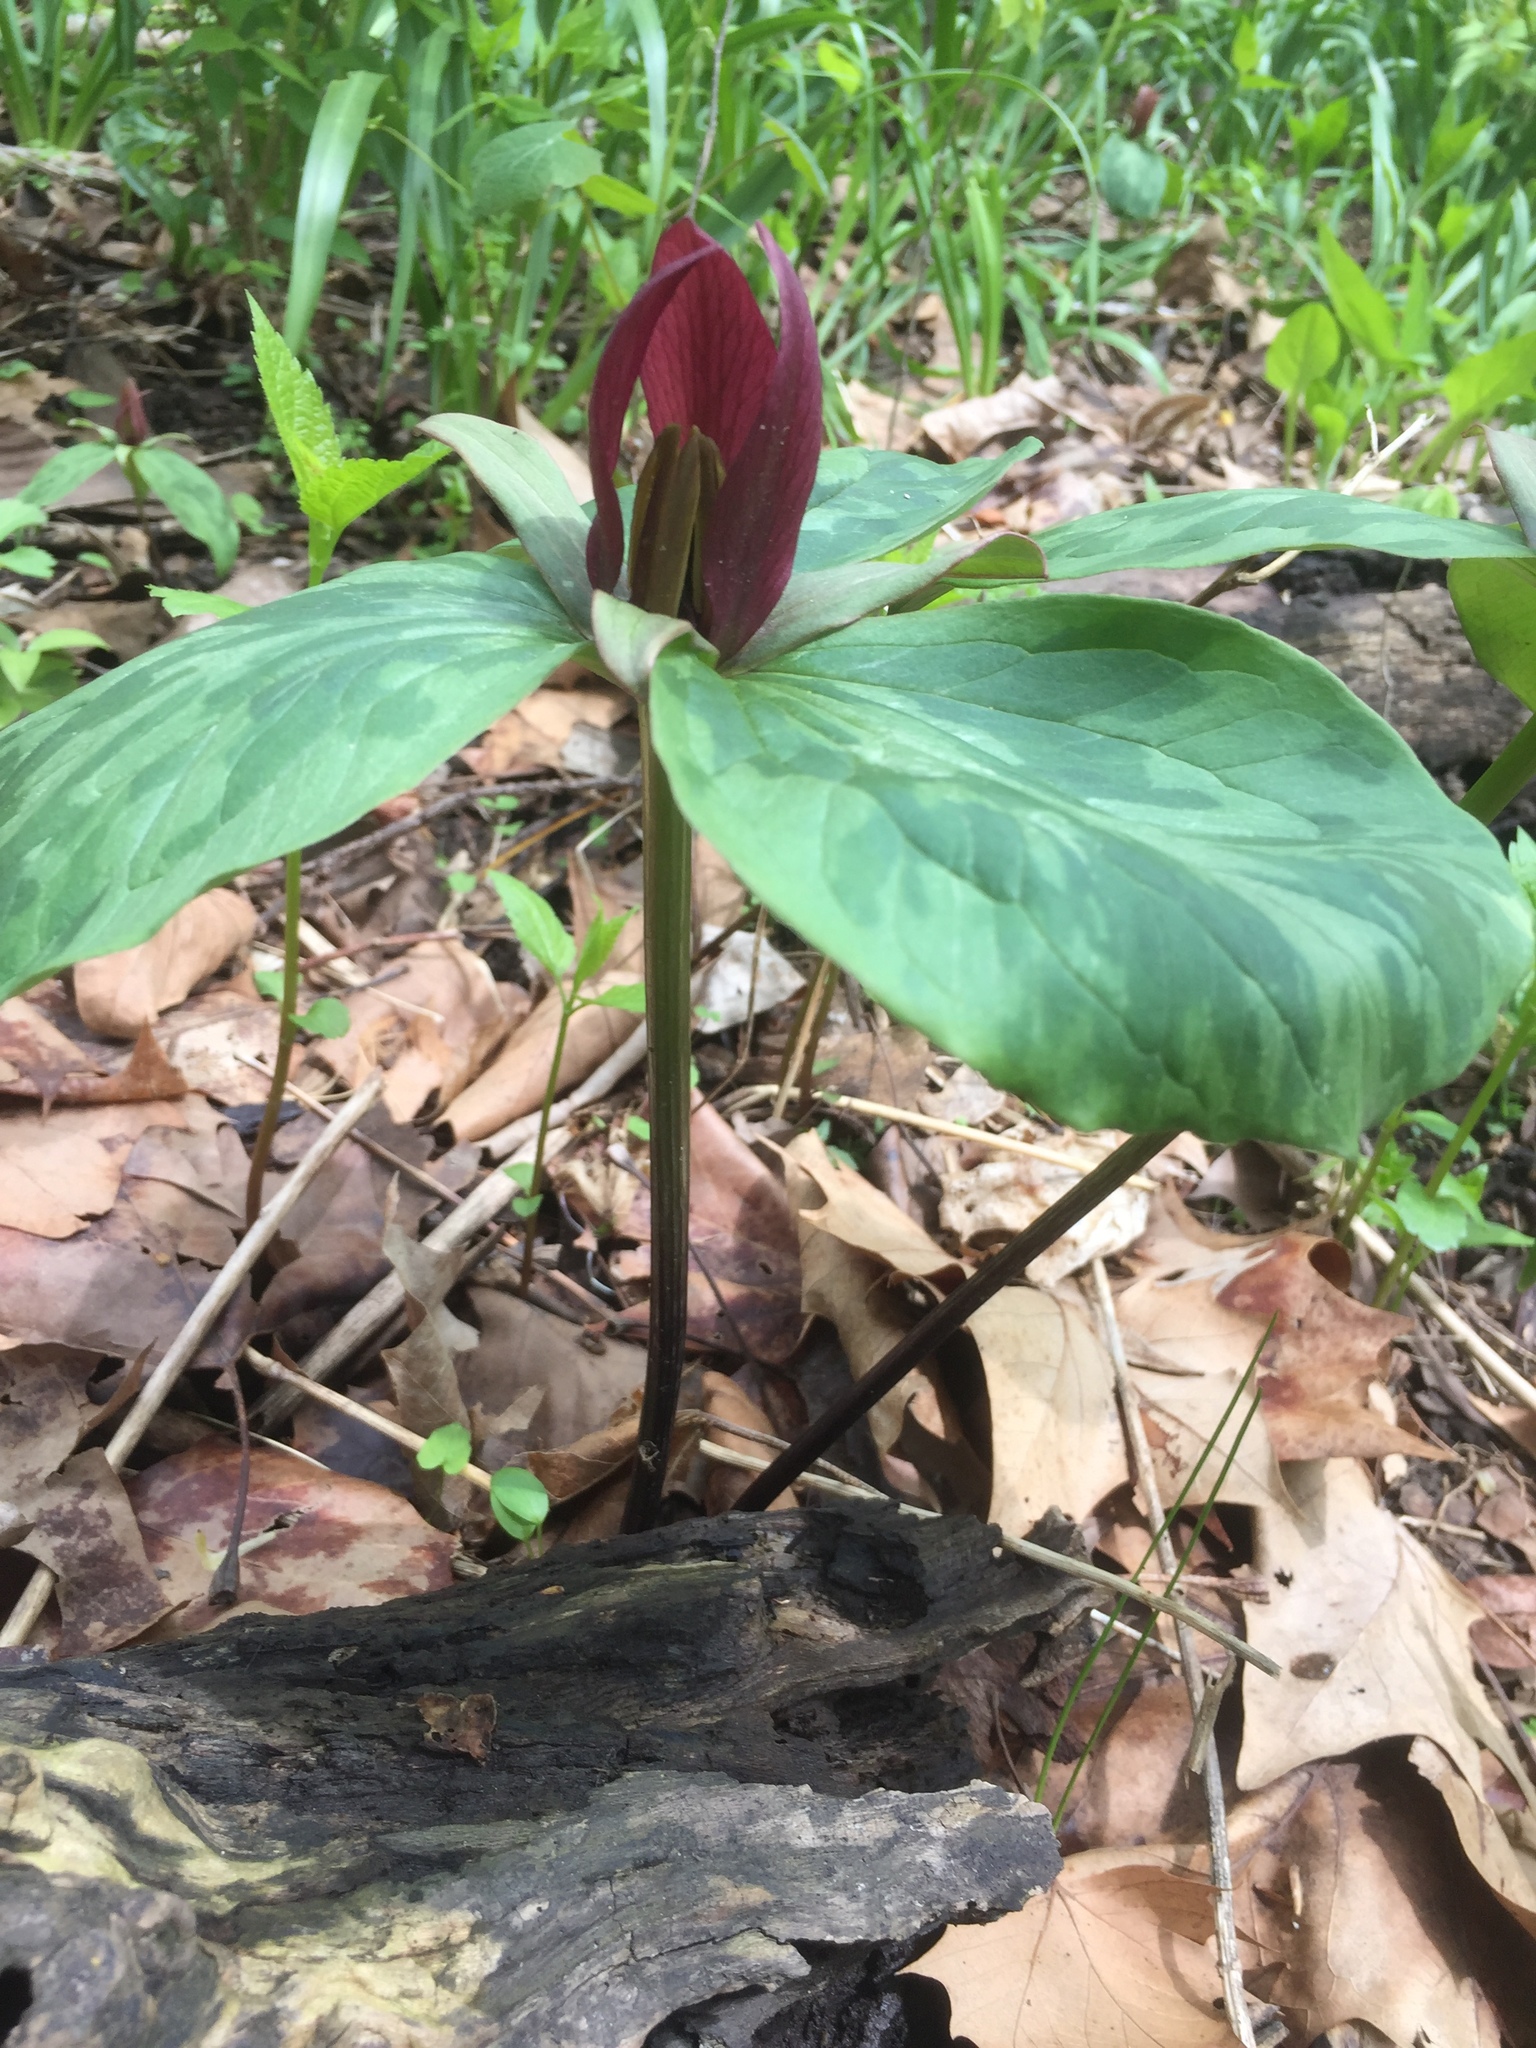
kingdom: Plantae
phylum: Tracheophyta
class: Liliopsida
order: Liliales
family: Melanthiaceae
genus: Trillium
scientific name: Trillium sessile
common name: Sessile trillium
